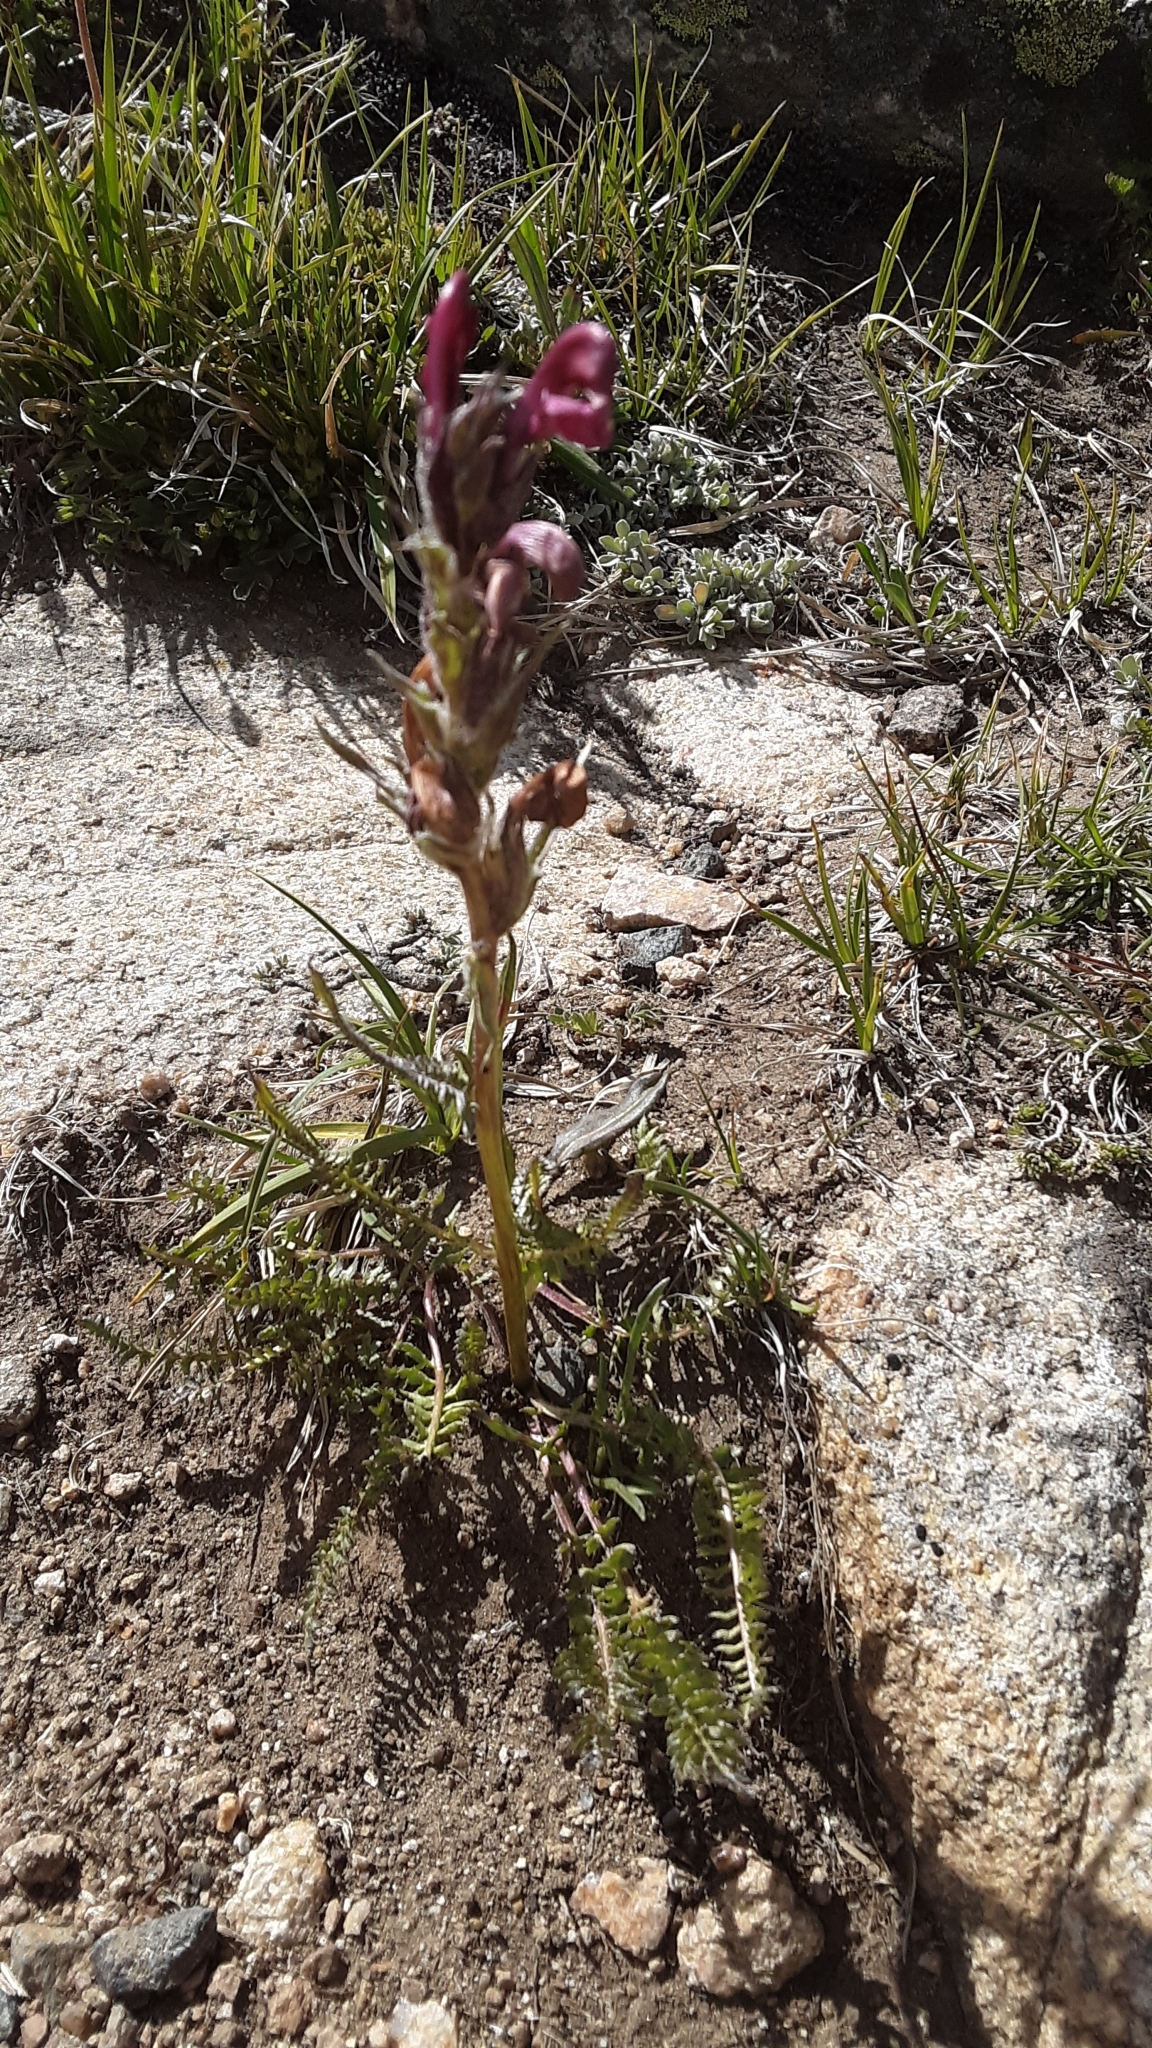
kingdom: Plantae
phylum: Tracheophyta
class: Magnoliopsida
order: Lamiales
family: Orobanchaceae
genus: Pedicularis
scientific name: Pedicularis cystopteridifolia
